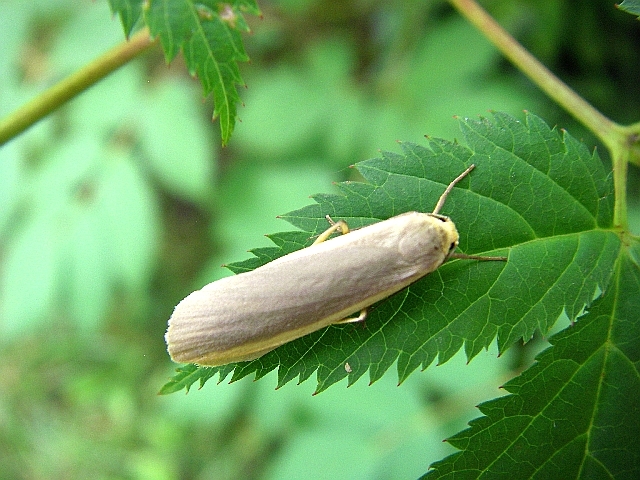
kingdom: Animalia
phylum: Arthropoda
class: Insecta
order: Lepidoptera
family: Erebidae
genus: Collita
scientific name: Collita griseola
